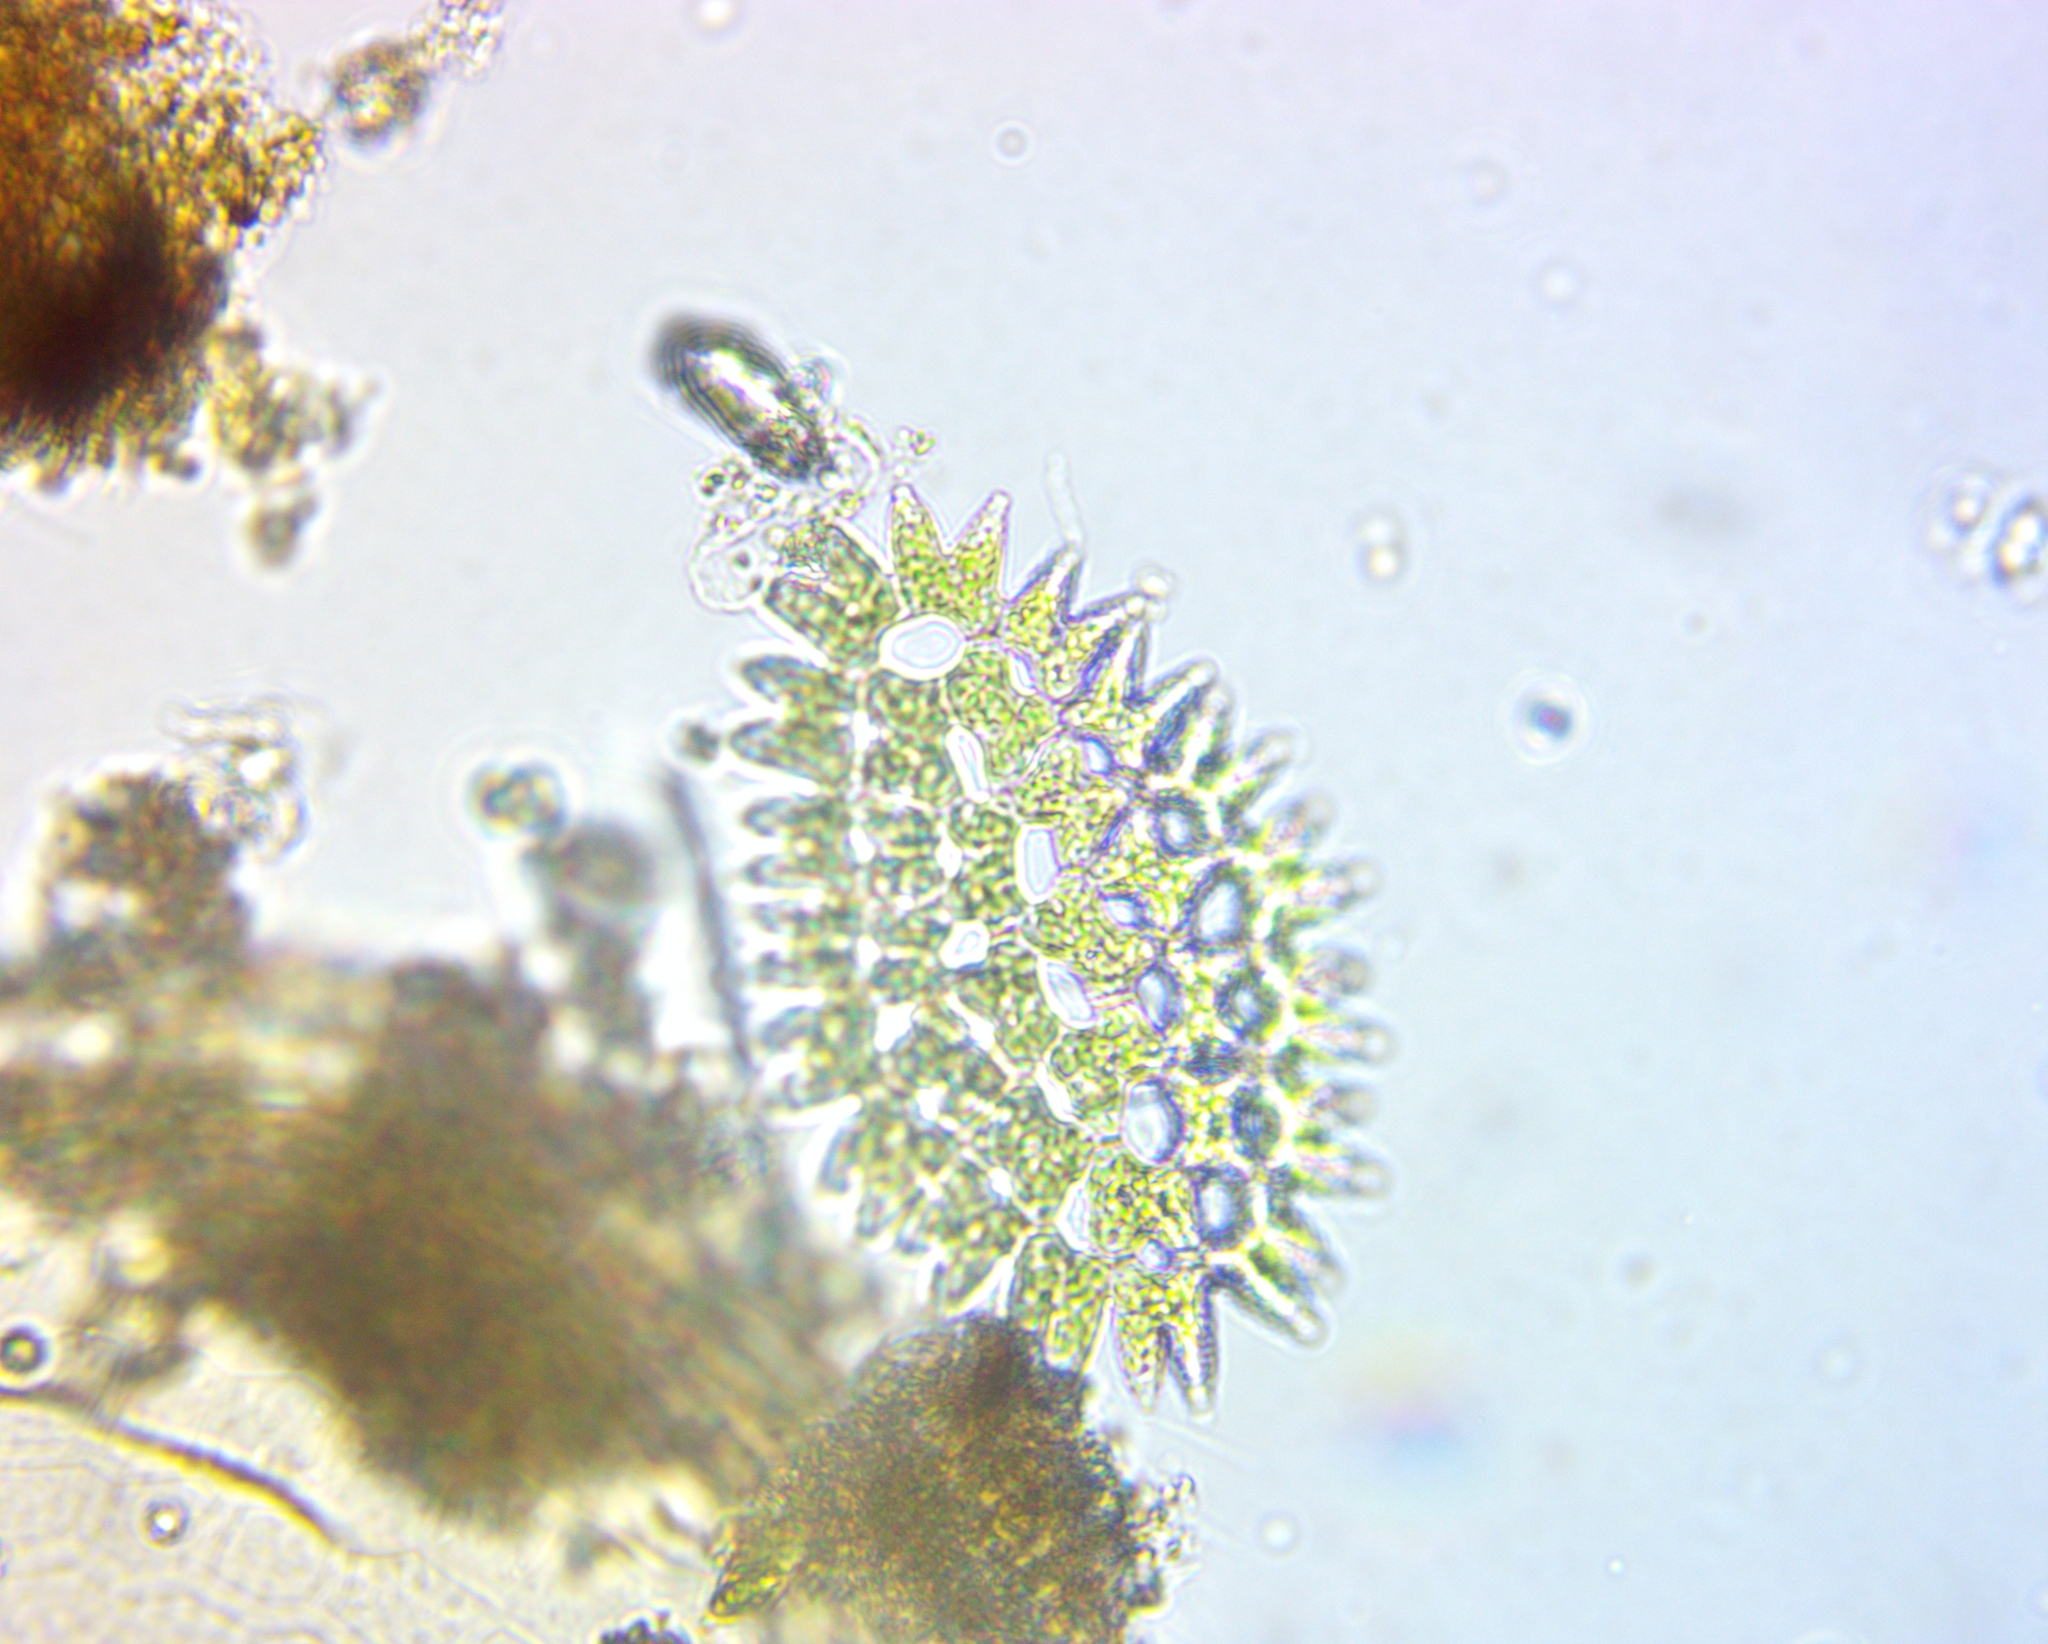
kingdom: Plantae
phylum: Chlorophyta
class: Chlorophyceae
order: Sphaeropleales
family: Hydrodictyaceae
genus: Pediastrum
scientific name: Pediastrum duplex
